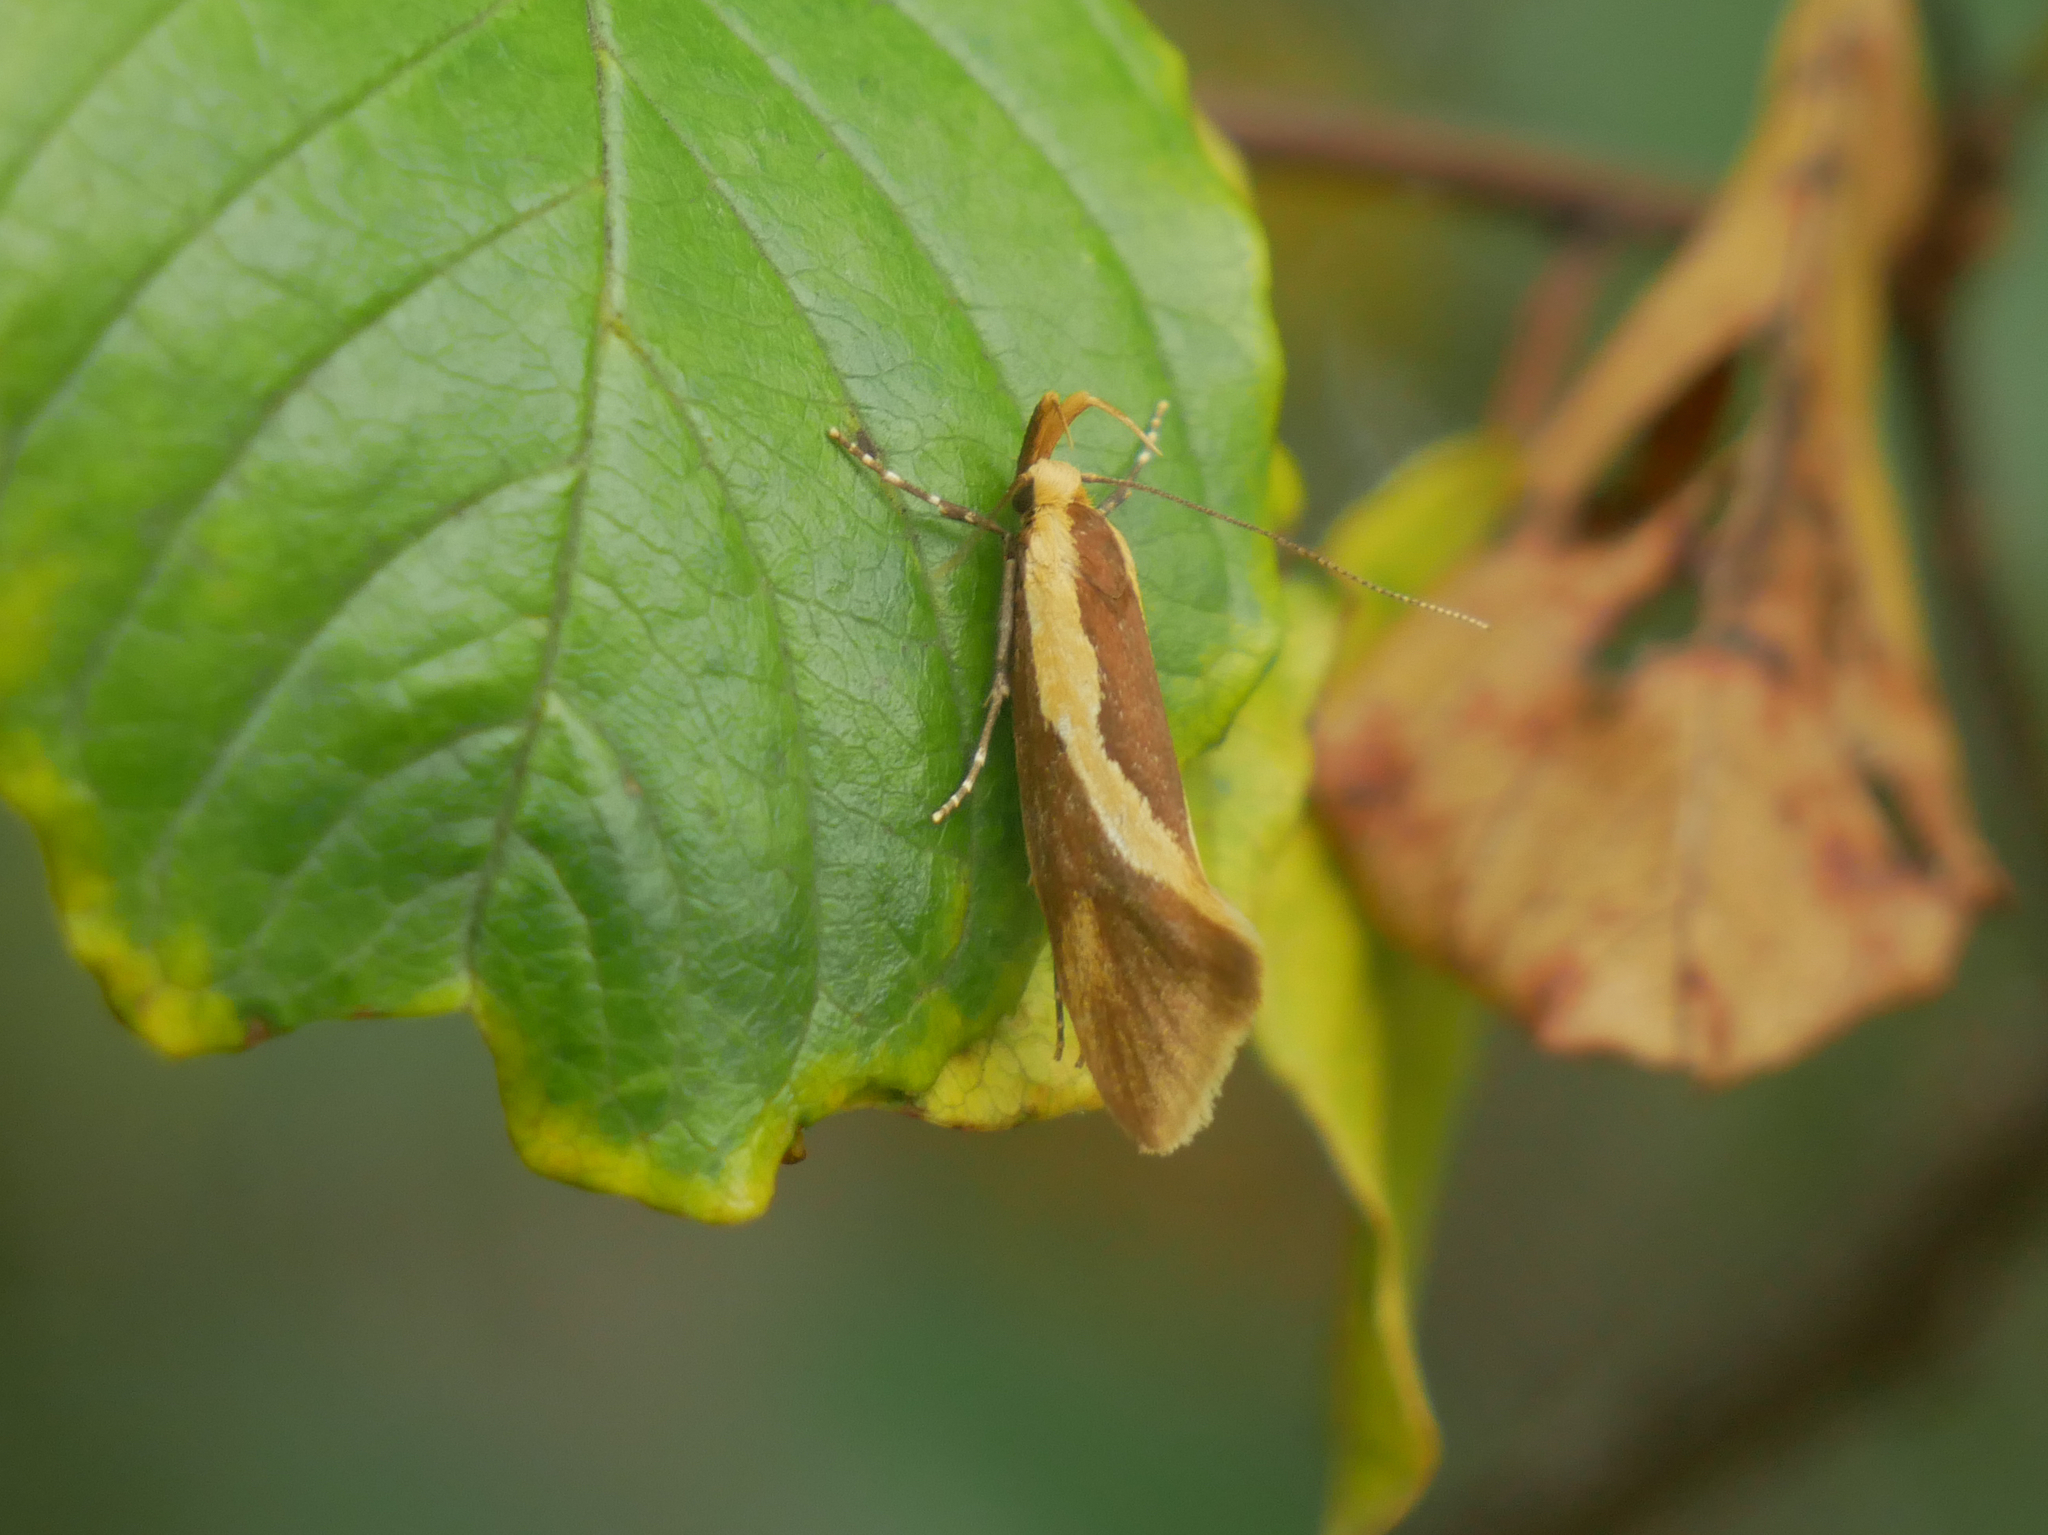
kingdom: Animalia
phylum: Arthropoda
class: Insecta
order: Lepidoptera
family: Oecophoridae
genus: Harpella
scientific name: Harpella forficella
